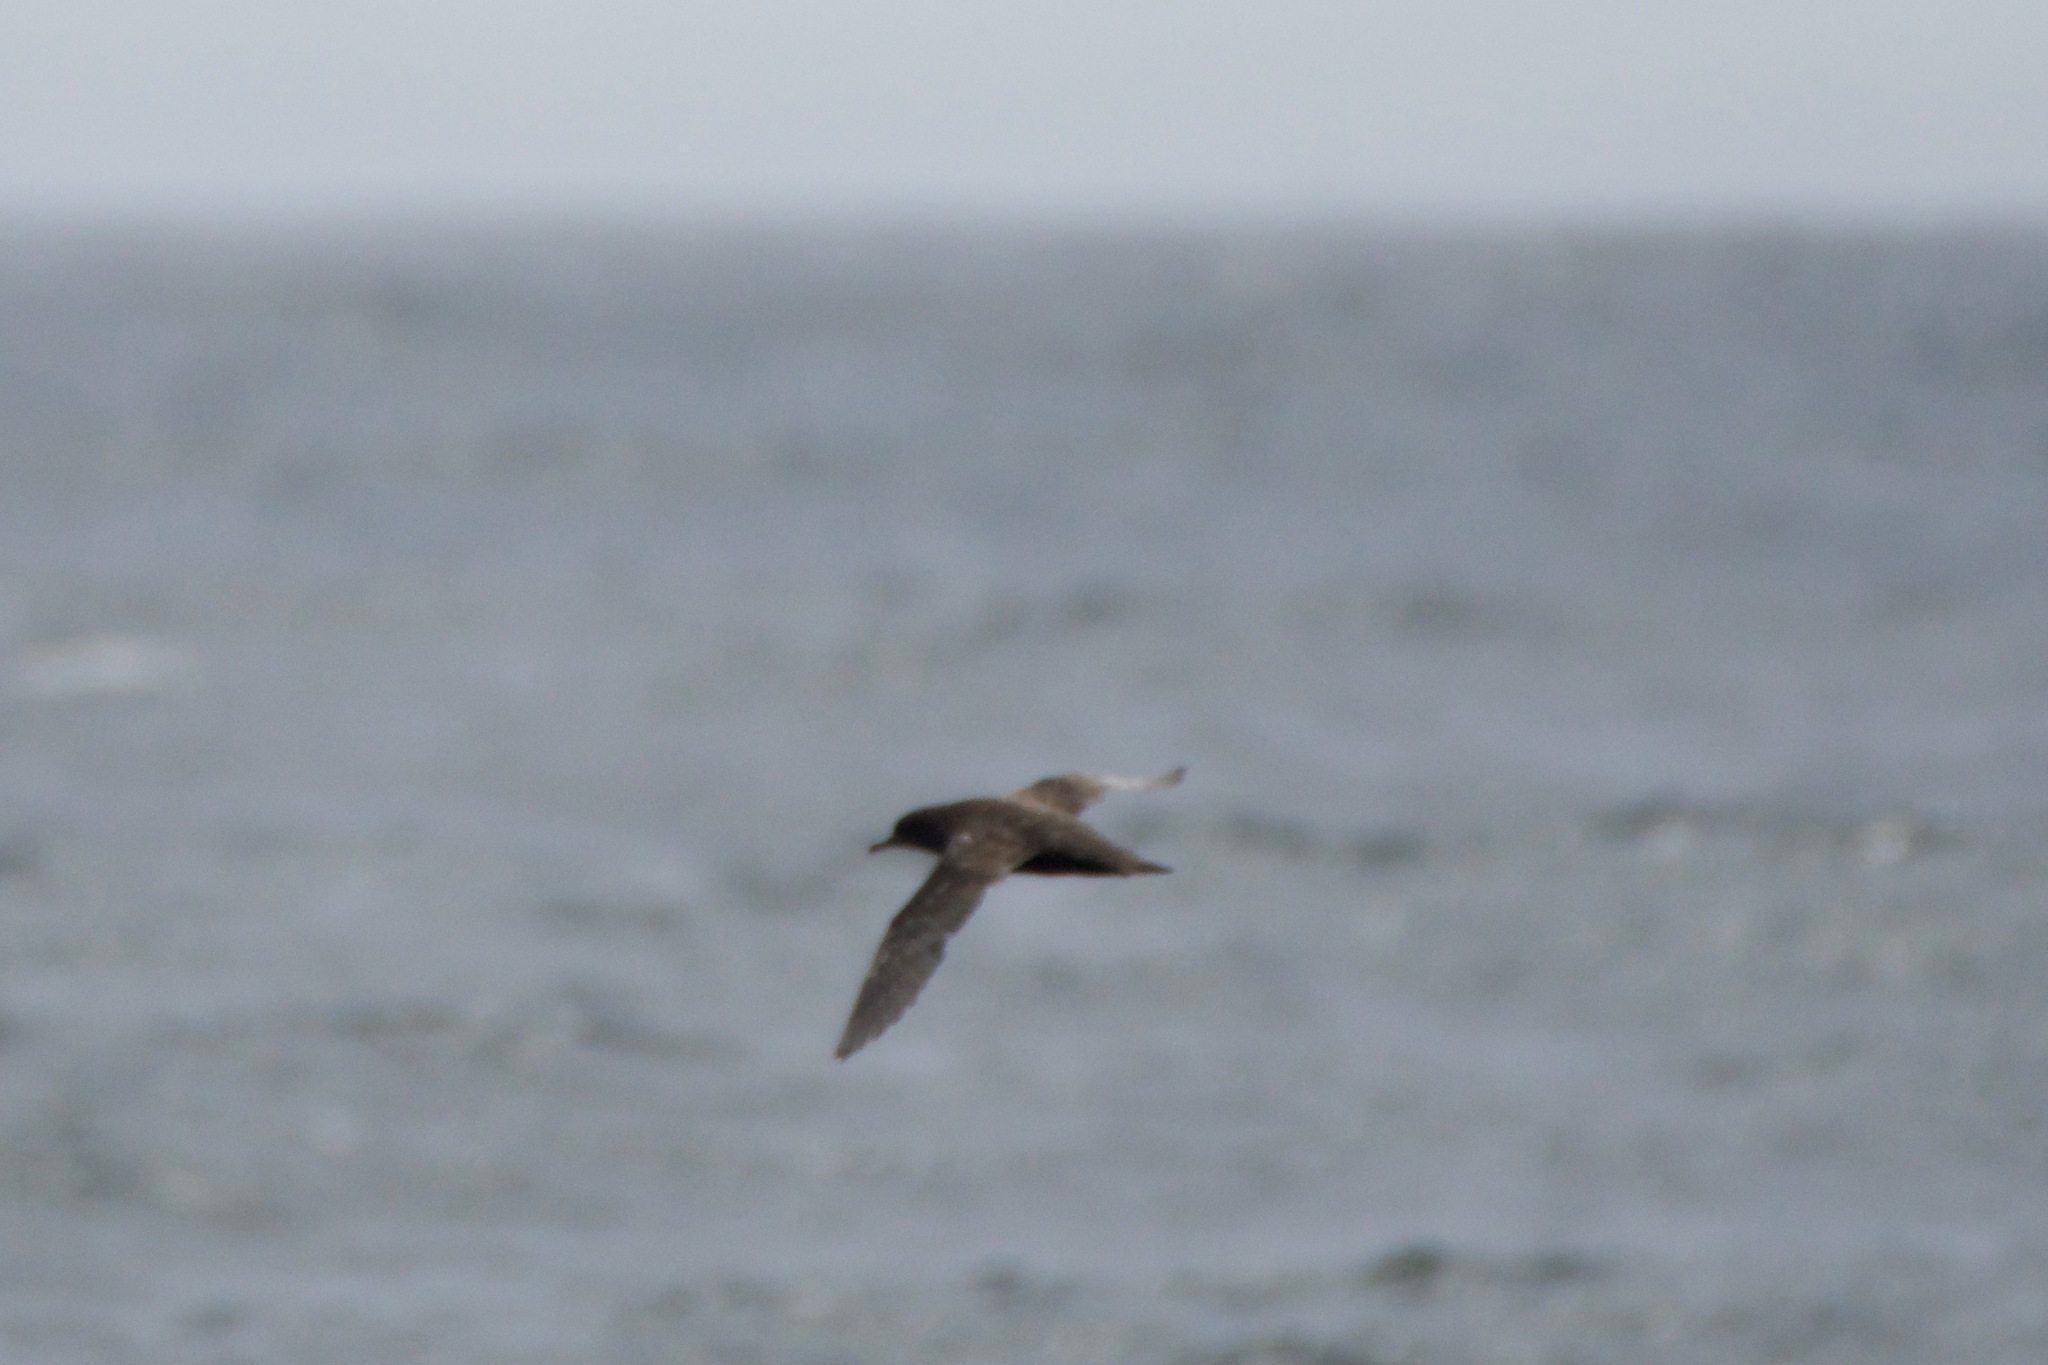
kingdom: Animalia
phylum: Chordata
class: Aves
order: Procellariiformes
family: Procellariidae
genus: Puffinus
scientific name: Puffinus griseus
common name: Sooty shearwater
